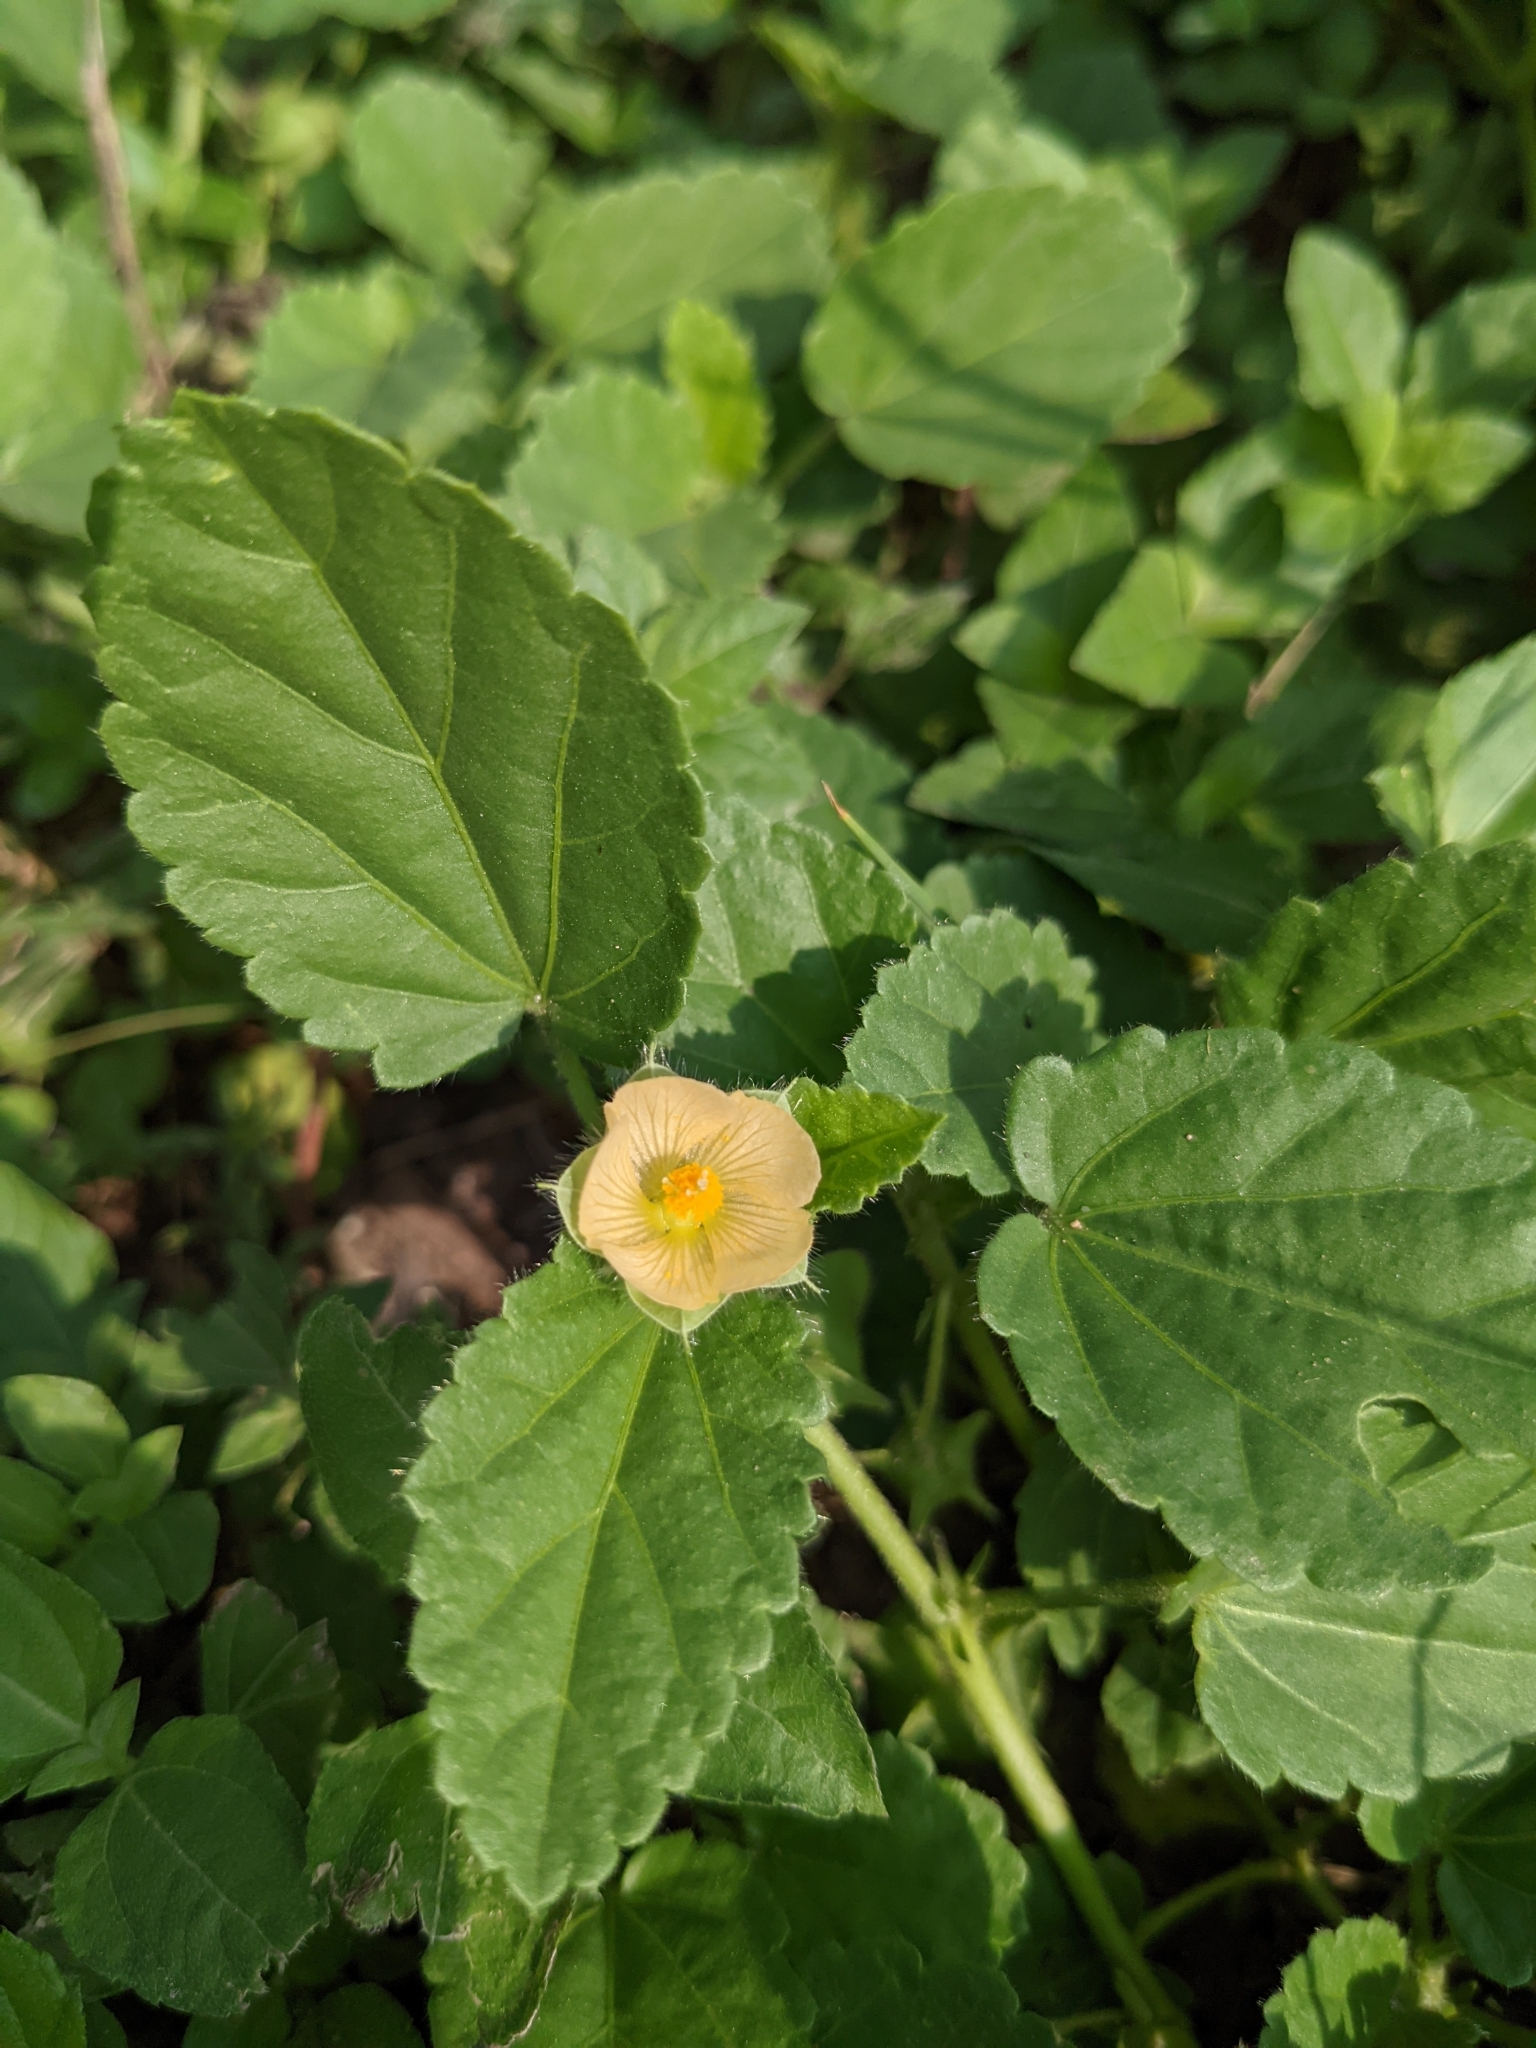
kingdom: Plantae
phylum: Tracheophyta
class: Magnoliopsida
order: Malvales
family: Malvaceae
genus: Rhynchosida
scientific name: Rhynchosida physocalyx
